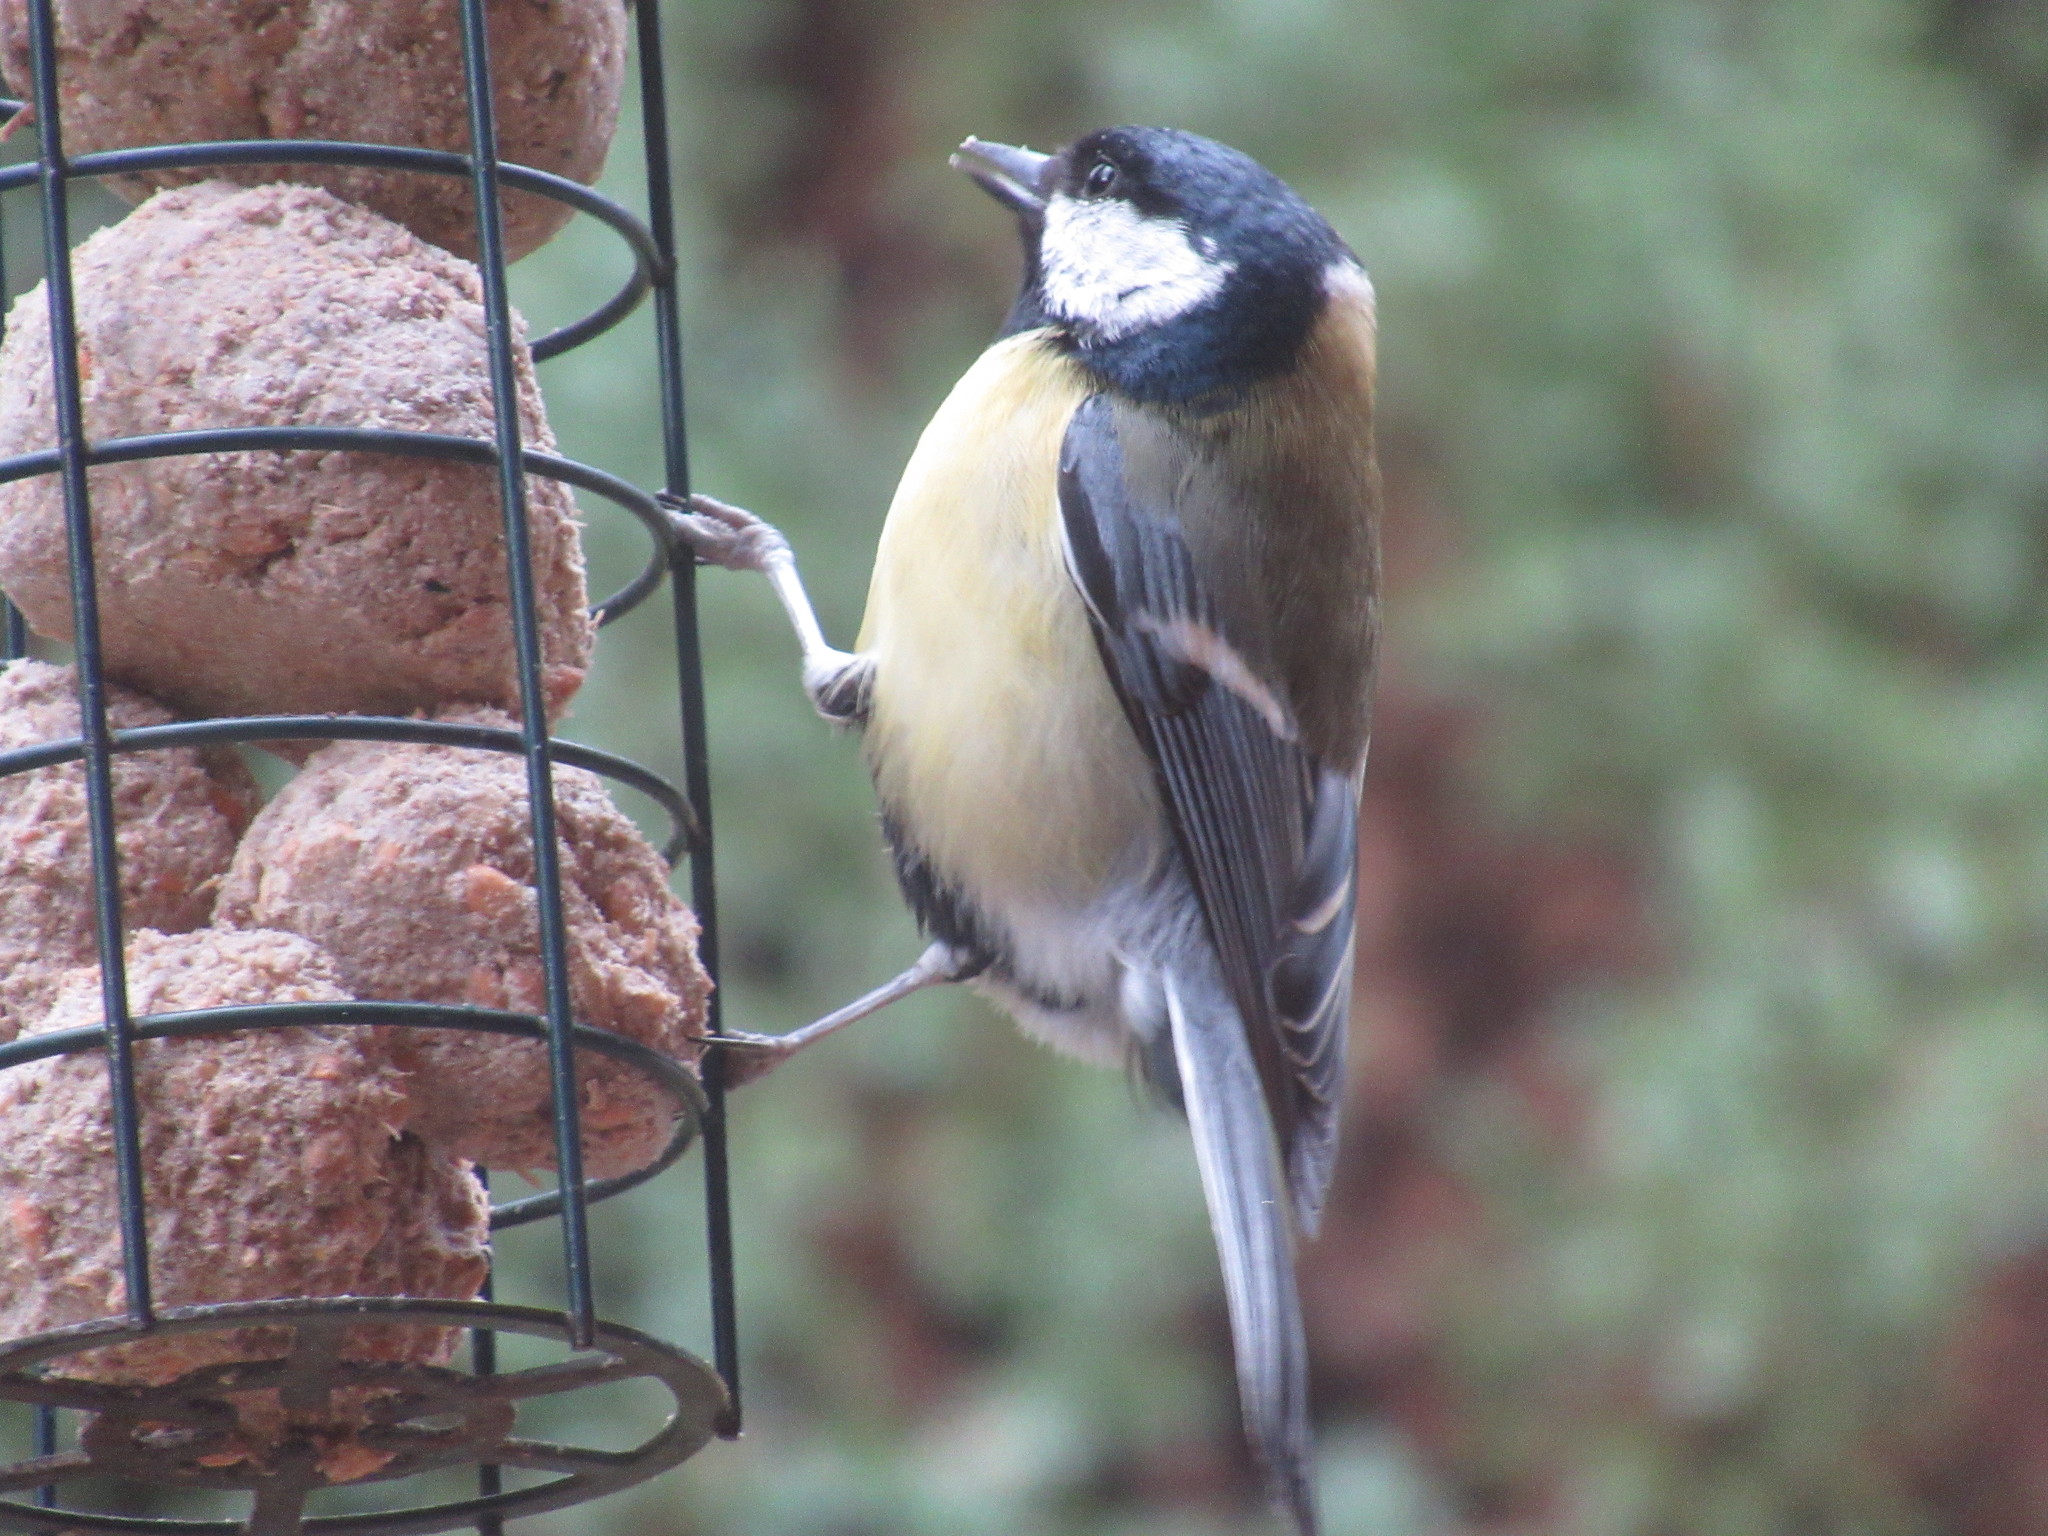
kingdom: Animalia
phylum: Chordata
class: Aves
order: Passeriformes
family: Paridae
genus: Parus
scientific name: Parus major
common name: Great tit
